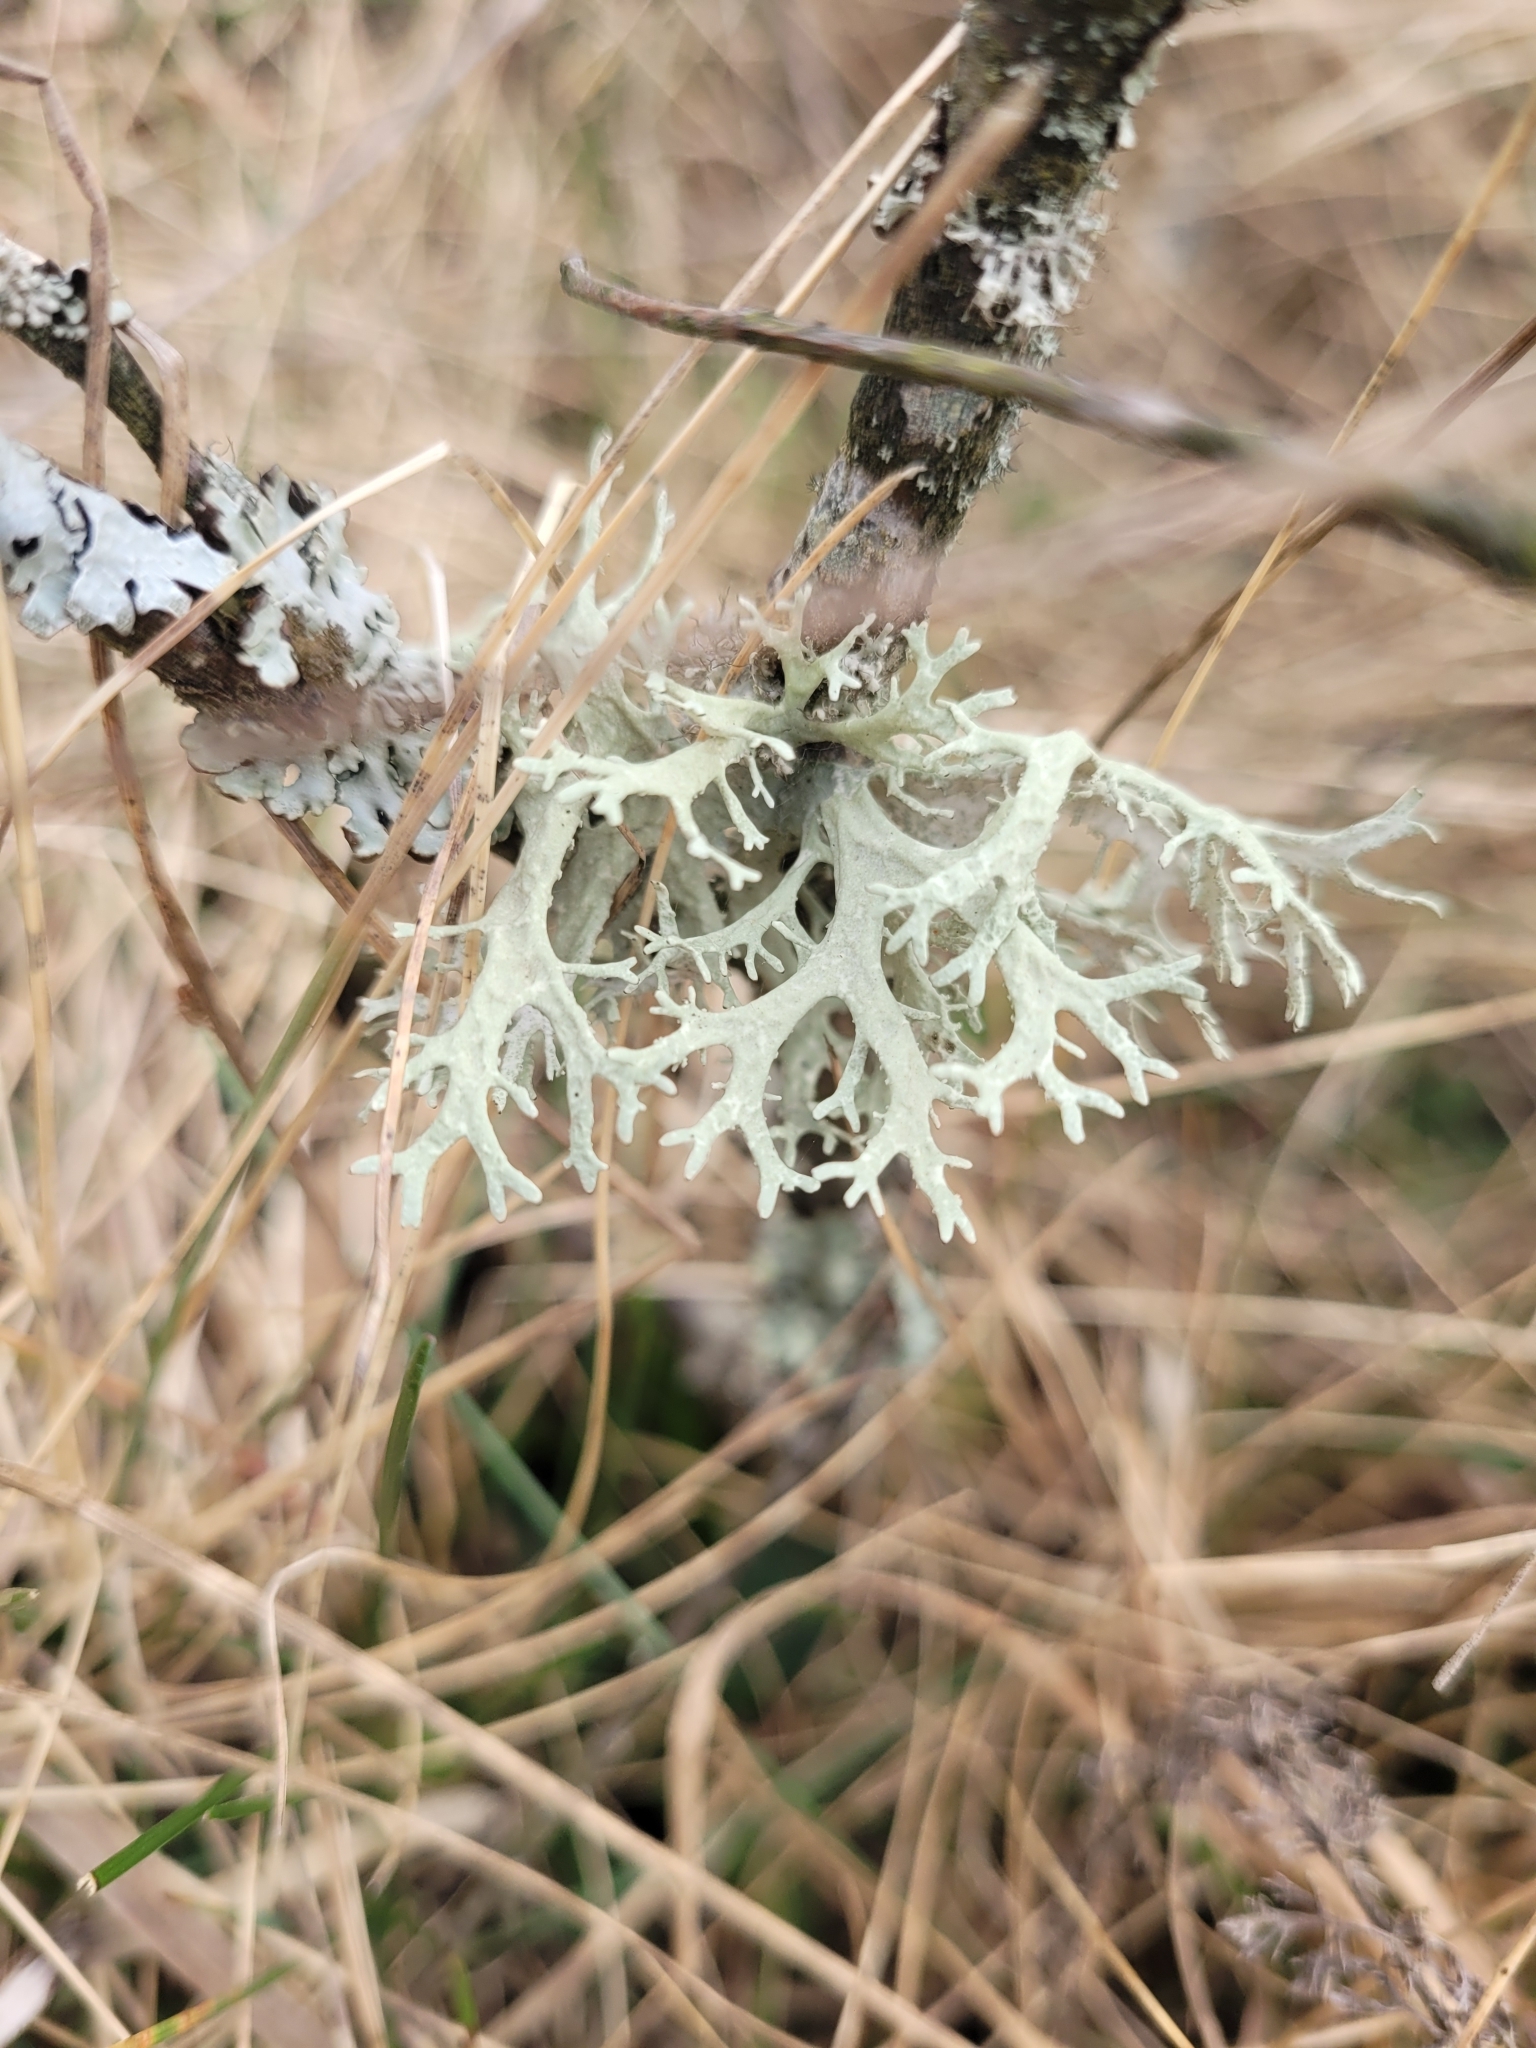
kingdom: Fungi
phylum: Ascomycota
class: Lecanoromycetes
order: Lecanorales
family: Parmeliaceae
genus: Evernia
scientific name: Evernia prunastri
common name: Oak moss
